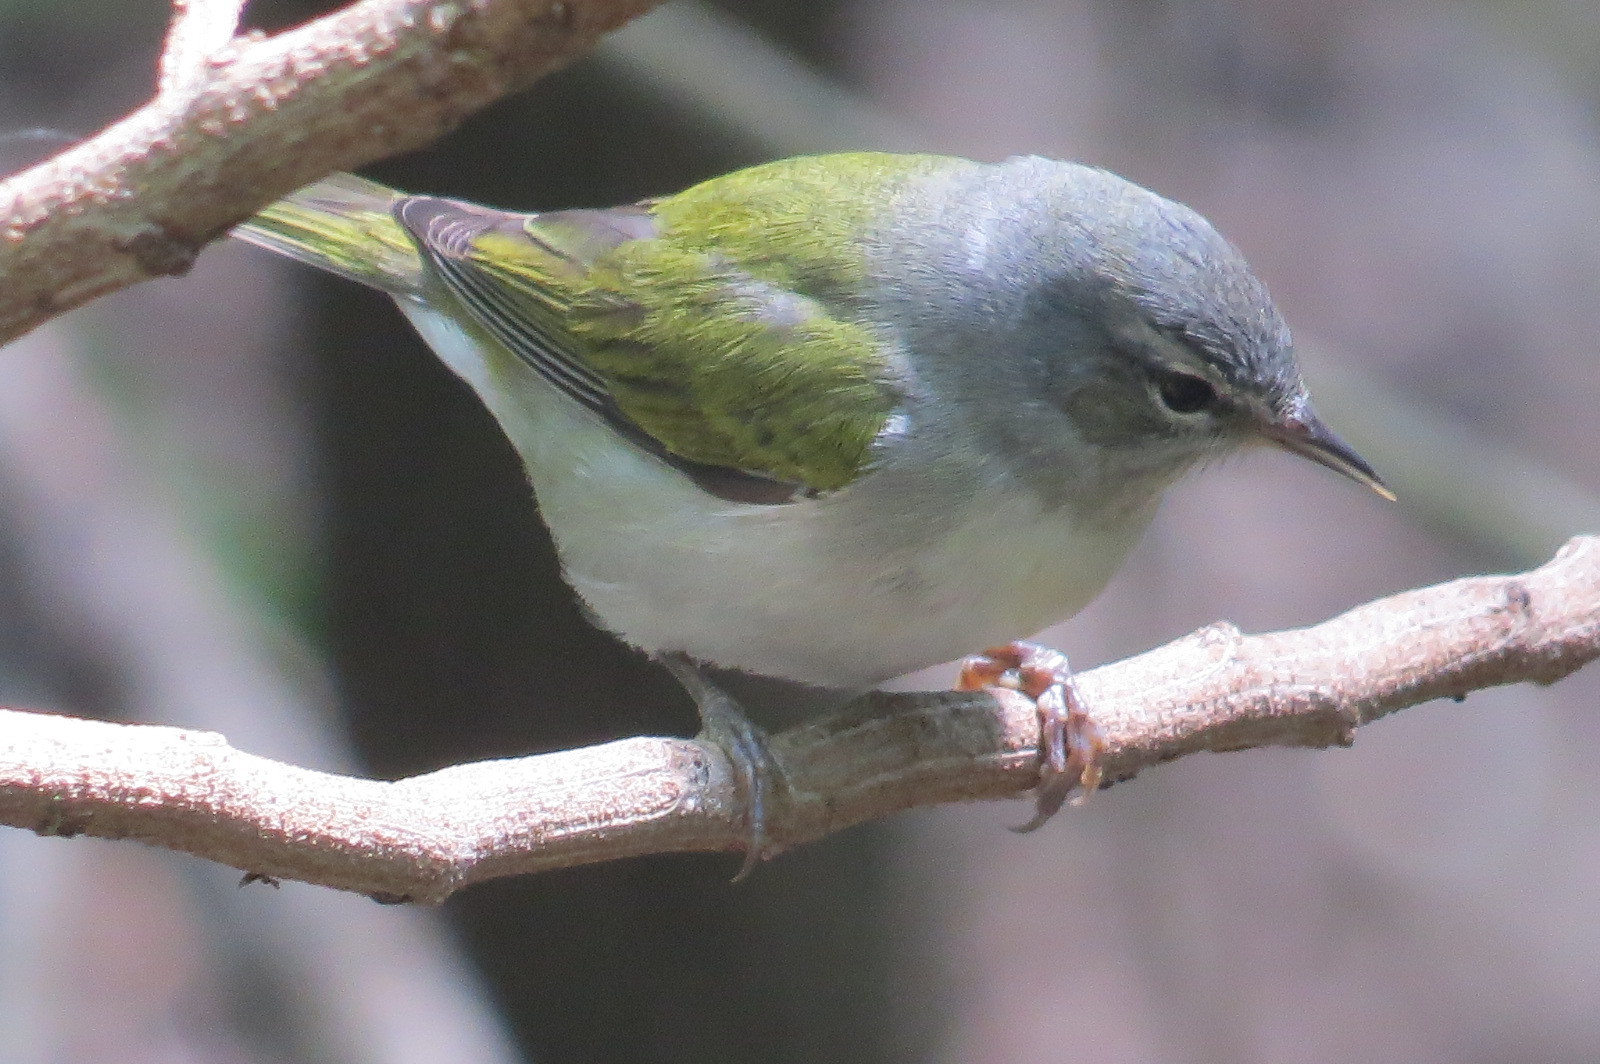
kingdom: Animalia
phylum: Chordata
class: Aves
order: Passeriformes
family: Parulidae
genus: Leiothlypis
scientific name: Leiothlypis peregrina
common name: Tennessee warbler
